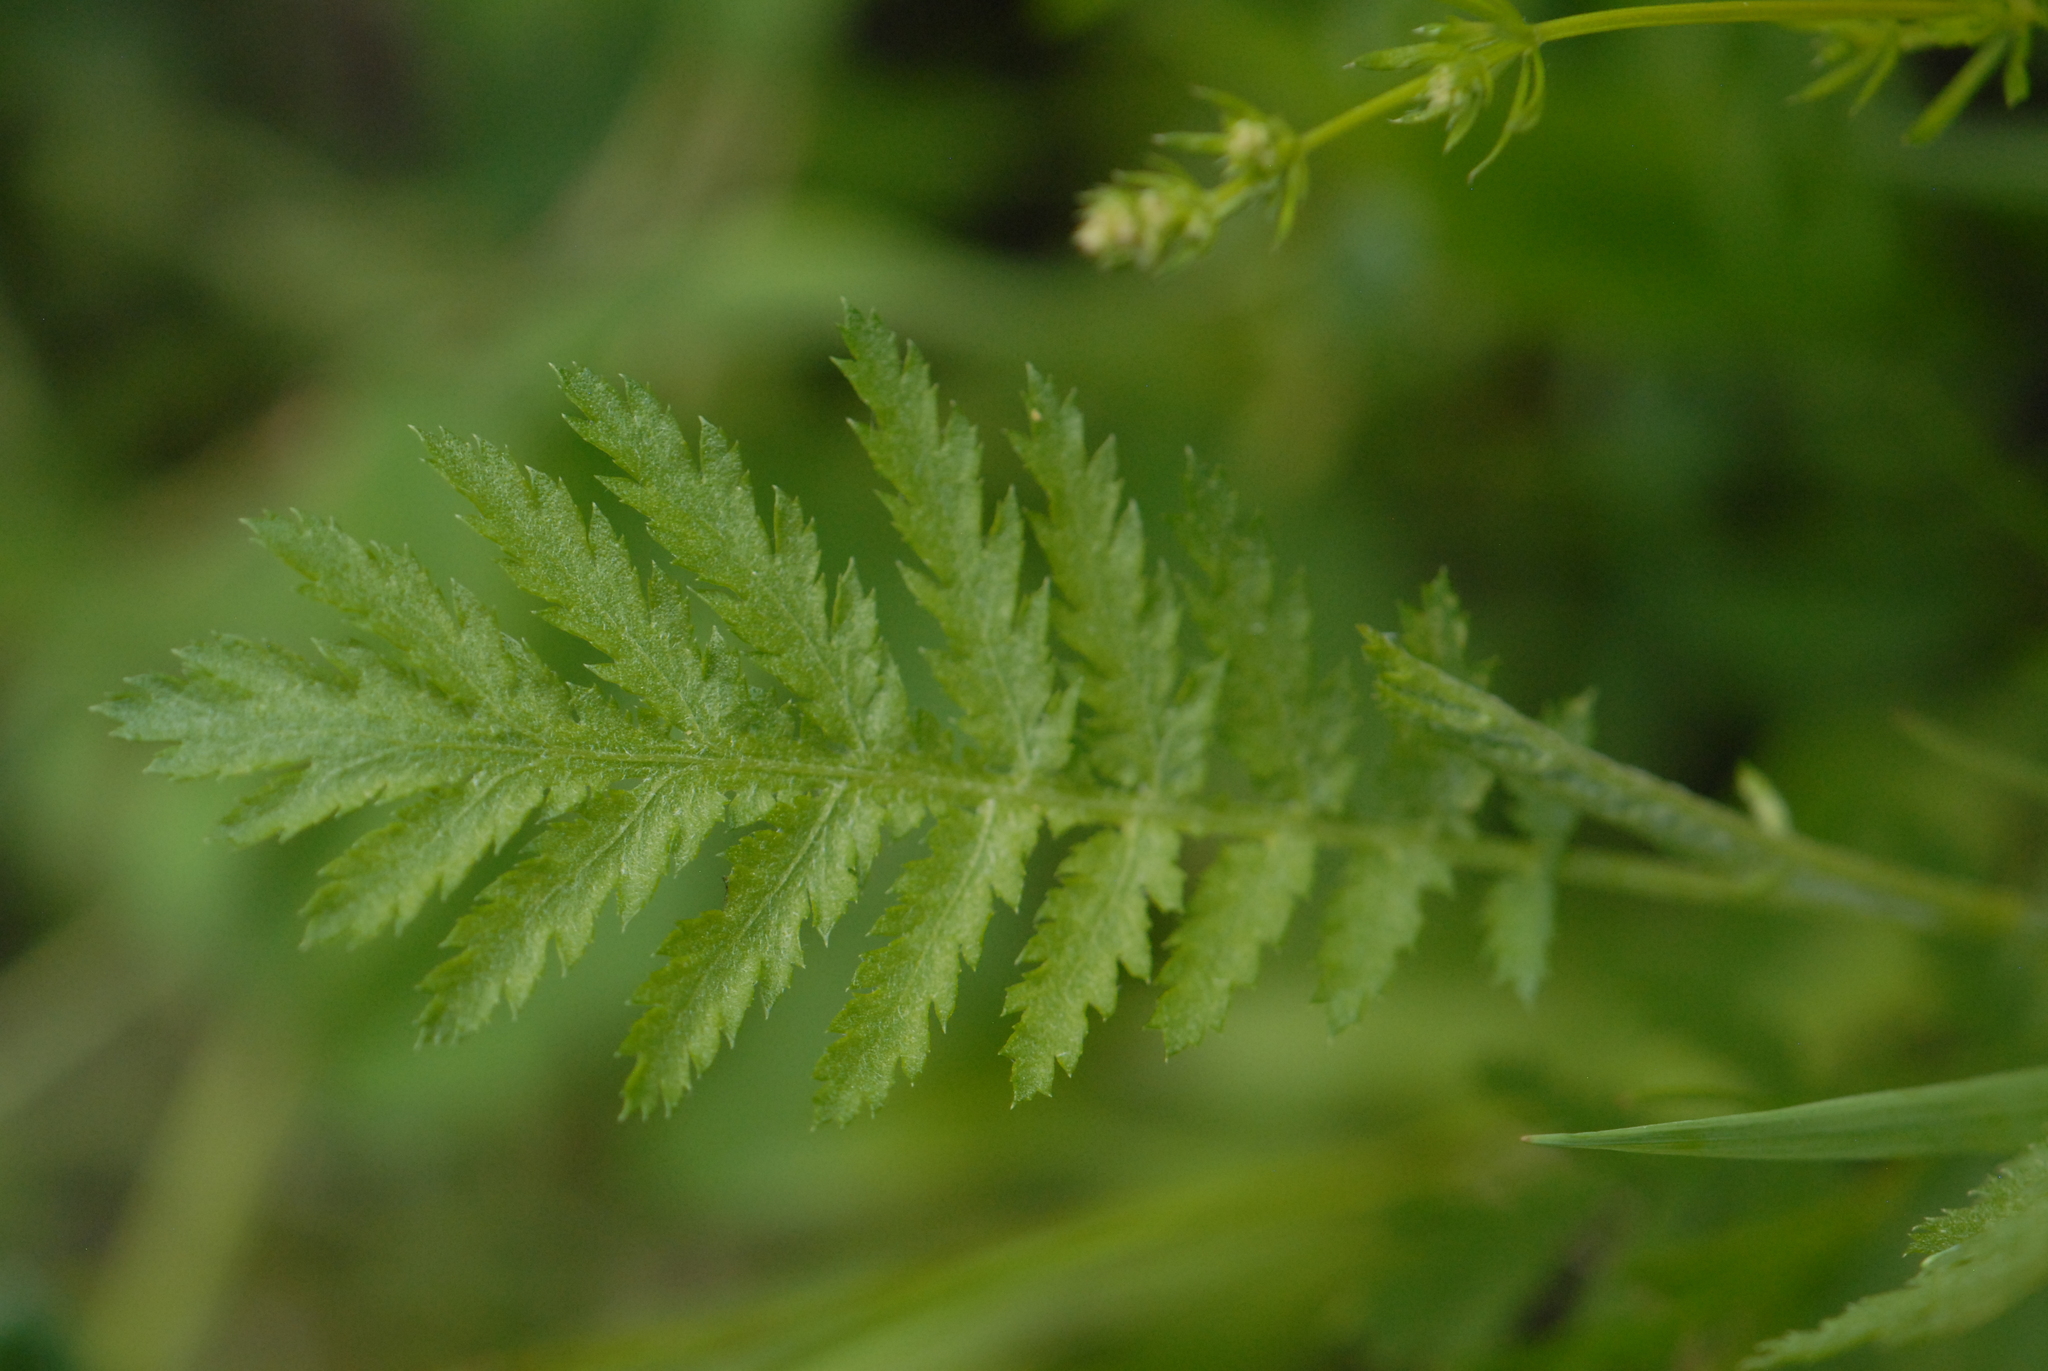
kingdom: Plantae
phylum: Tracheophyta
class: Magnoliopsida
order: Asterales
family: Asteraceae
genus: Tanacetum
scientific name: Tanacetum vulgare
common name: Common tansy
